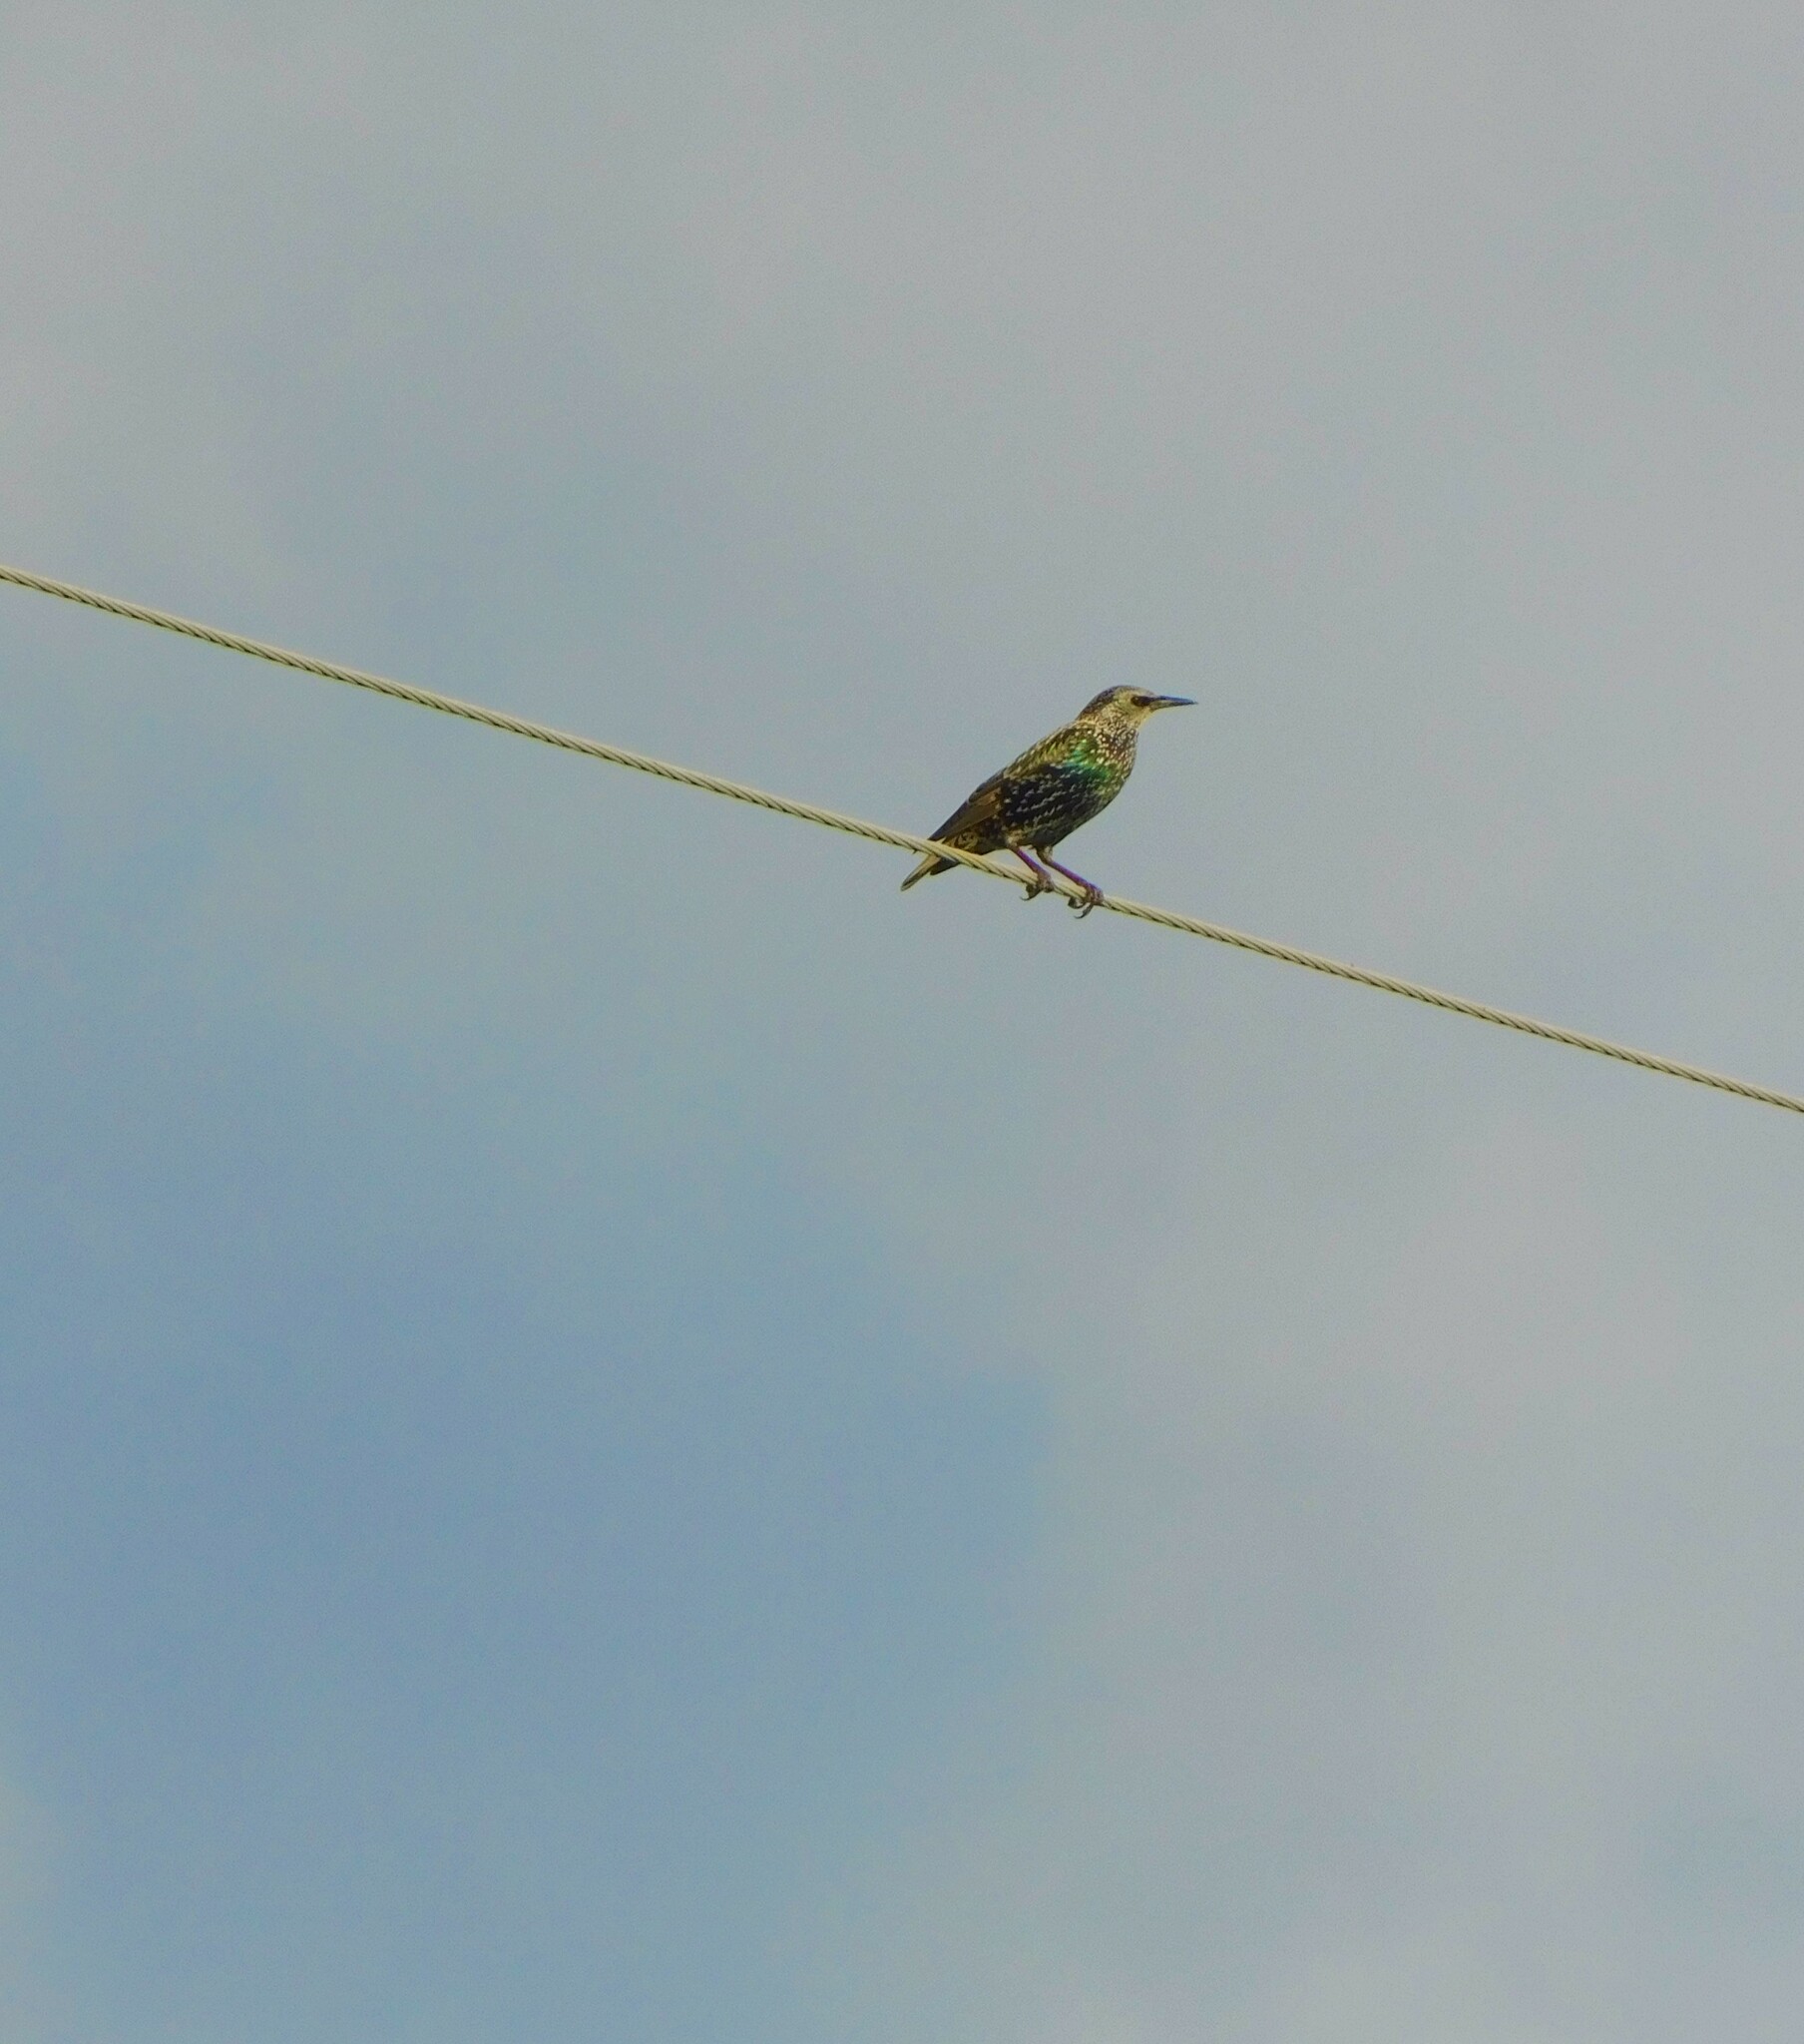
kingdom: Animalia
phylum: Chordata
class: Aves
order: Passeriformes
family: Sturnidae
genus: Sturnus
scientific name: Sturnus vulgaris
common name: Common starling
